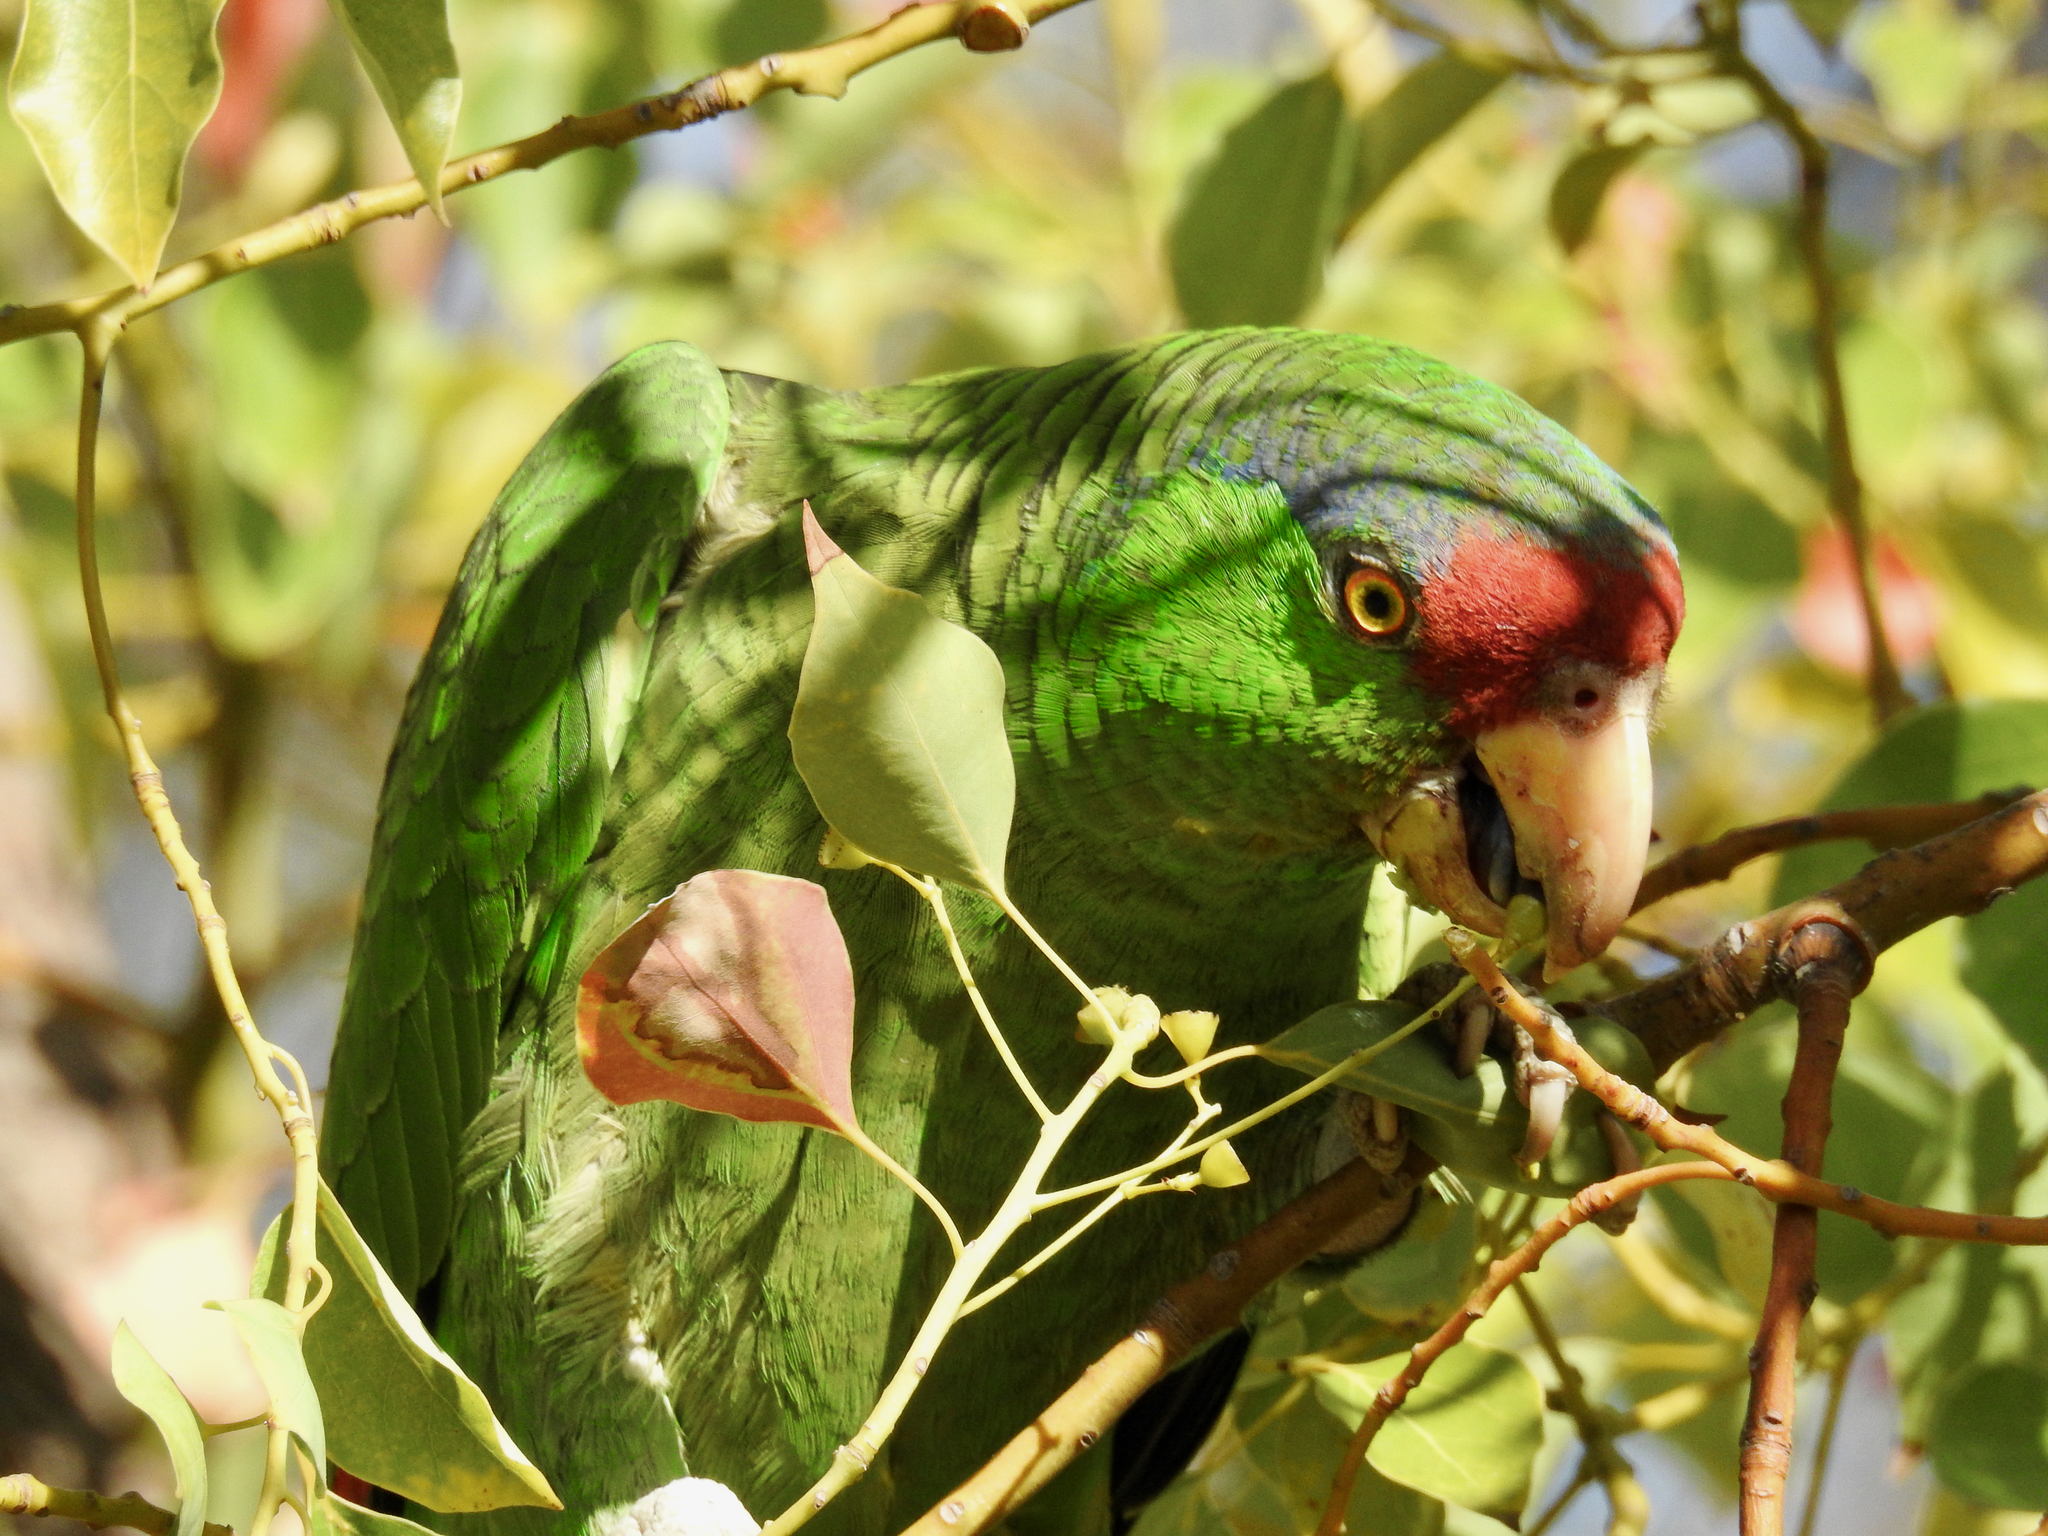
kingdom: Animalia
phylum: Chordata
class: Aves
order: Psittaciformes
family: Psittacidae
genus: Amazona
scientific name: Amazona viridigenalis
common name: Red-crowned amazon
